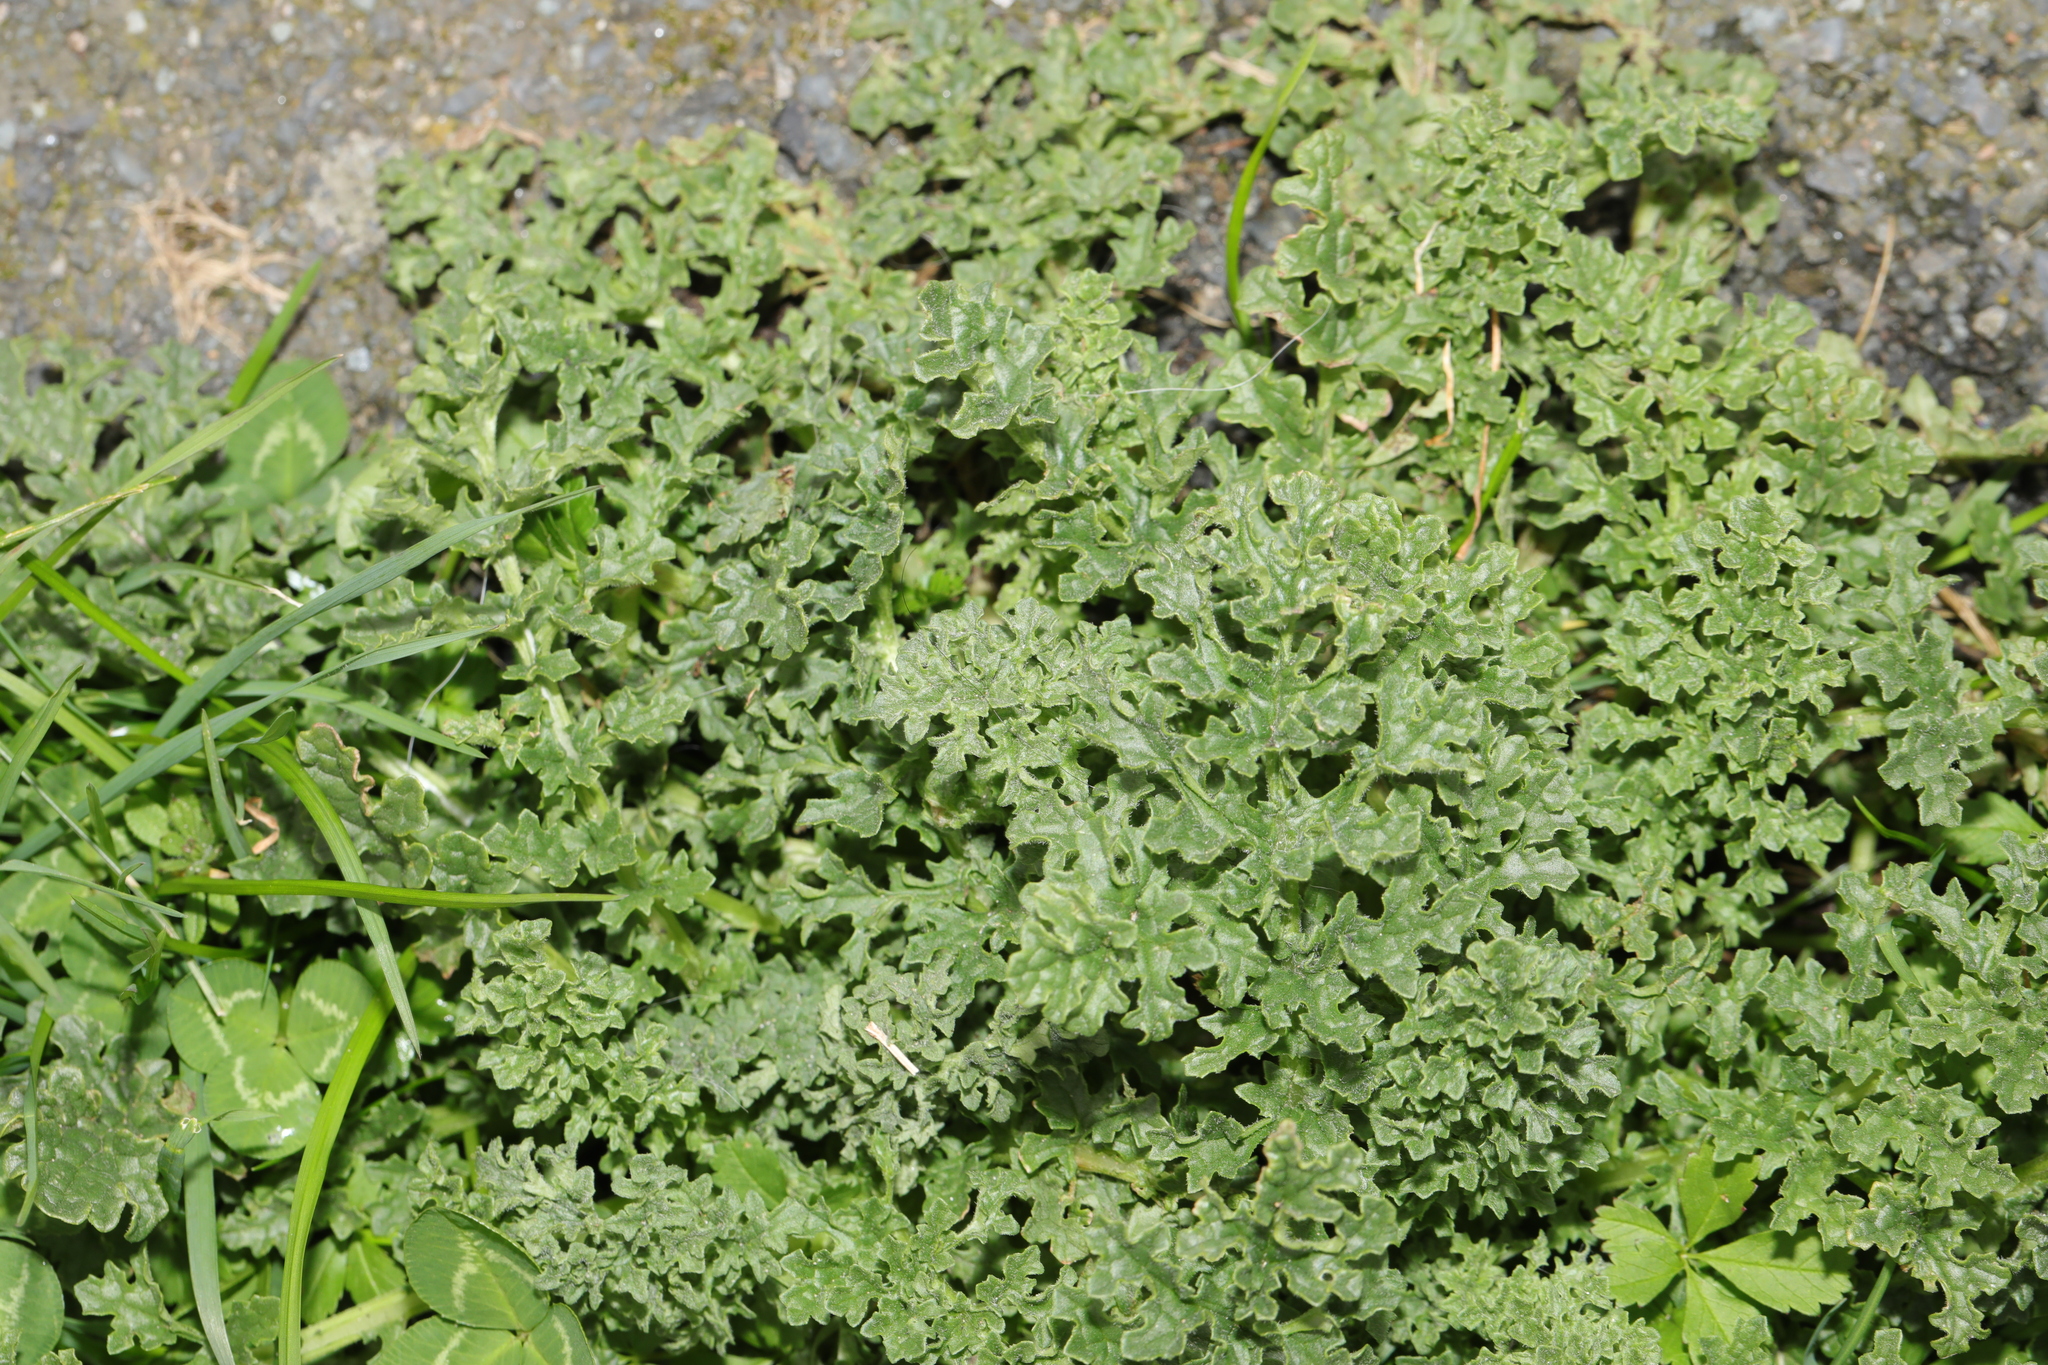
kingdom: Plantae
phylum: Tracheophyta
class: Magnoliopsida
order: Asterales
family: Asteraceae
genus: Jacobaea
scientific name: Jacobaea vulgaris
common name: Stinking willie
